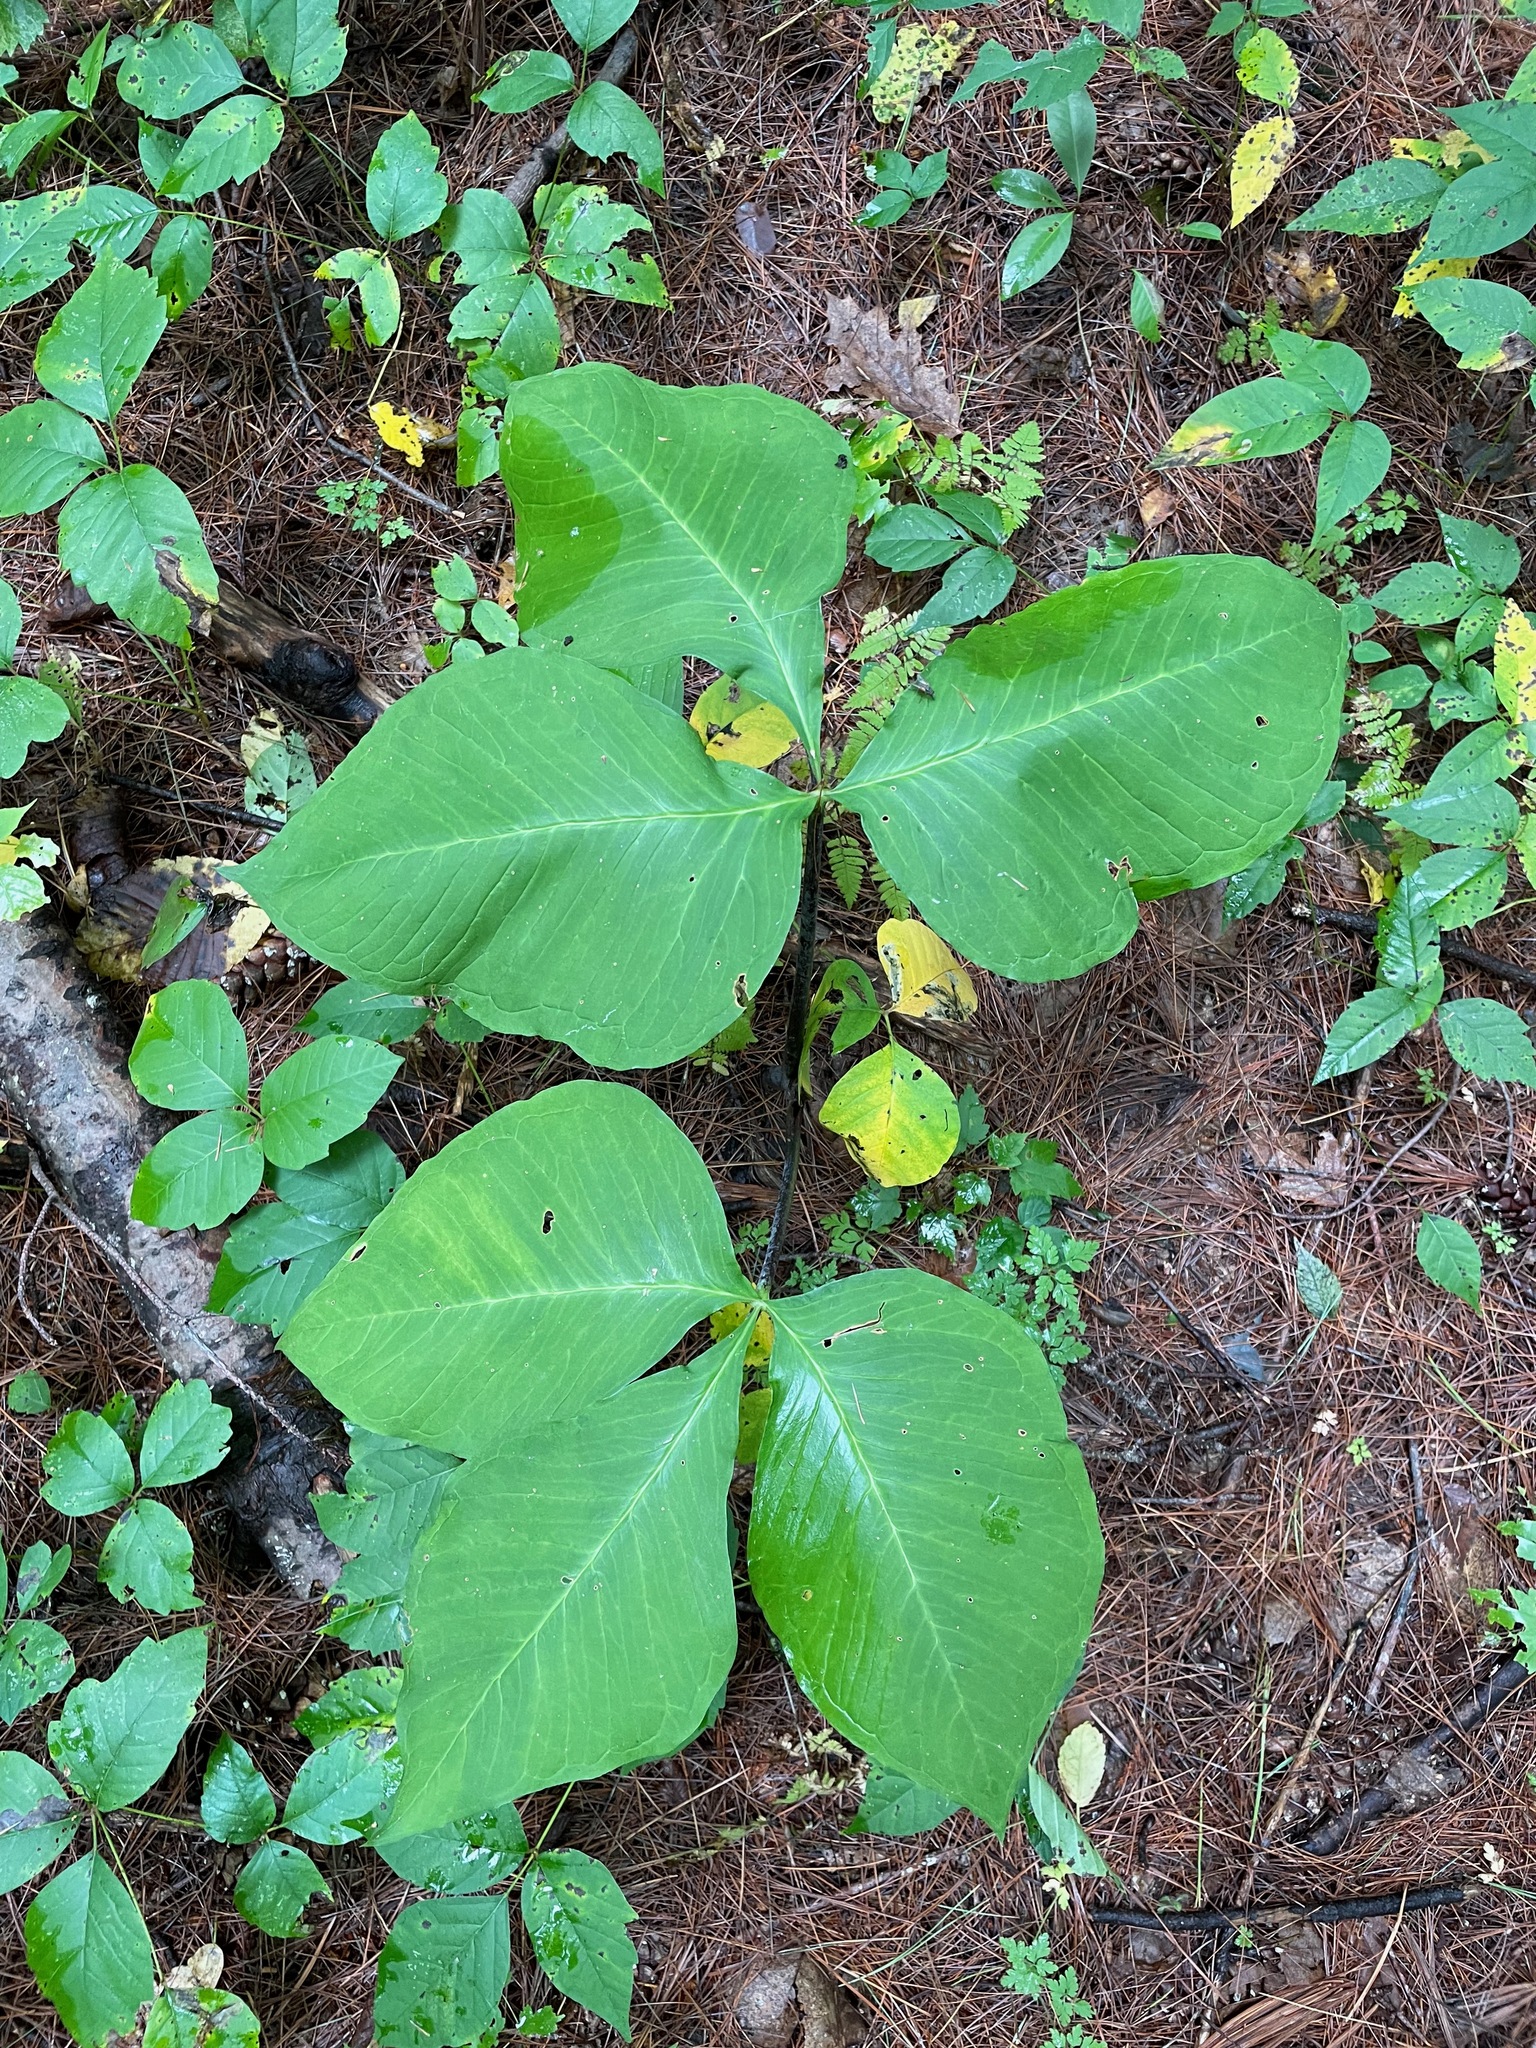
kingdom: Plantae
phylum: Tracheophyta
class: Liliopsida
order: Alismatales
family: Araceae
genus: Arisaema
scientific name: Arisaema
